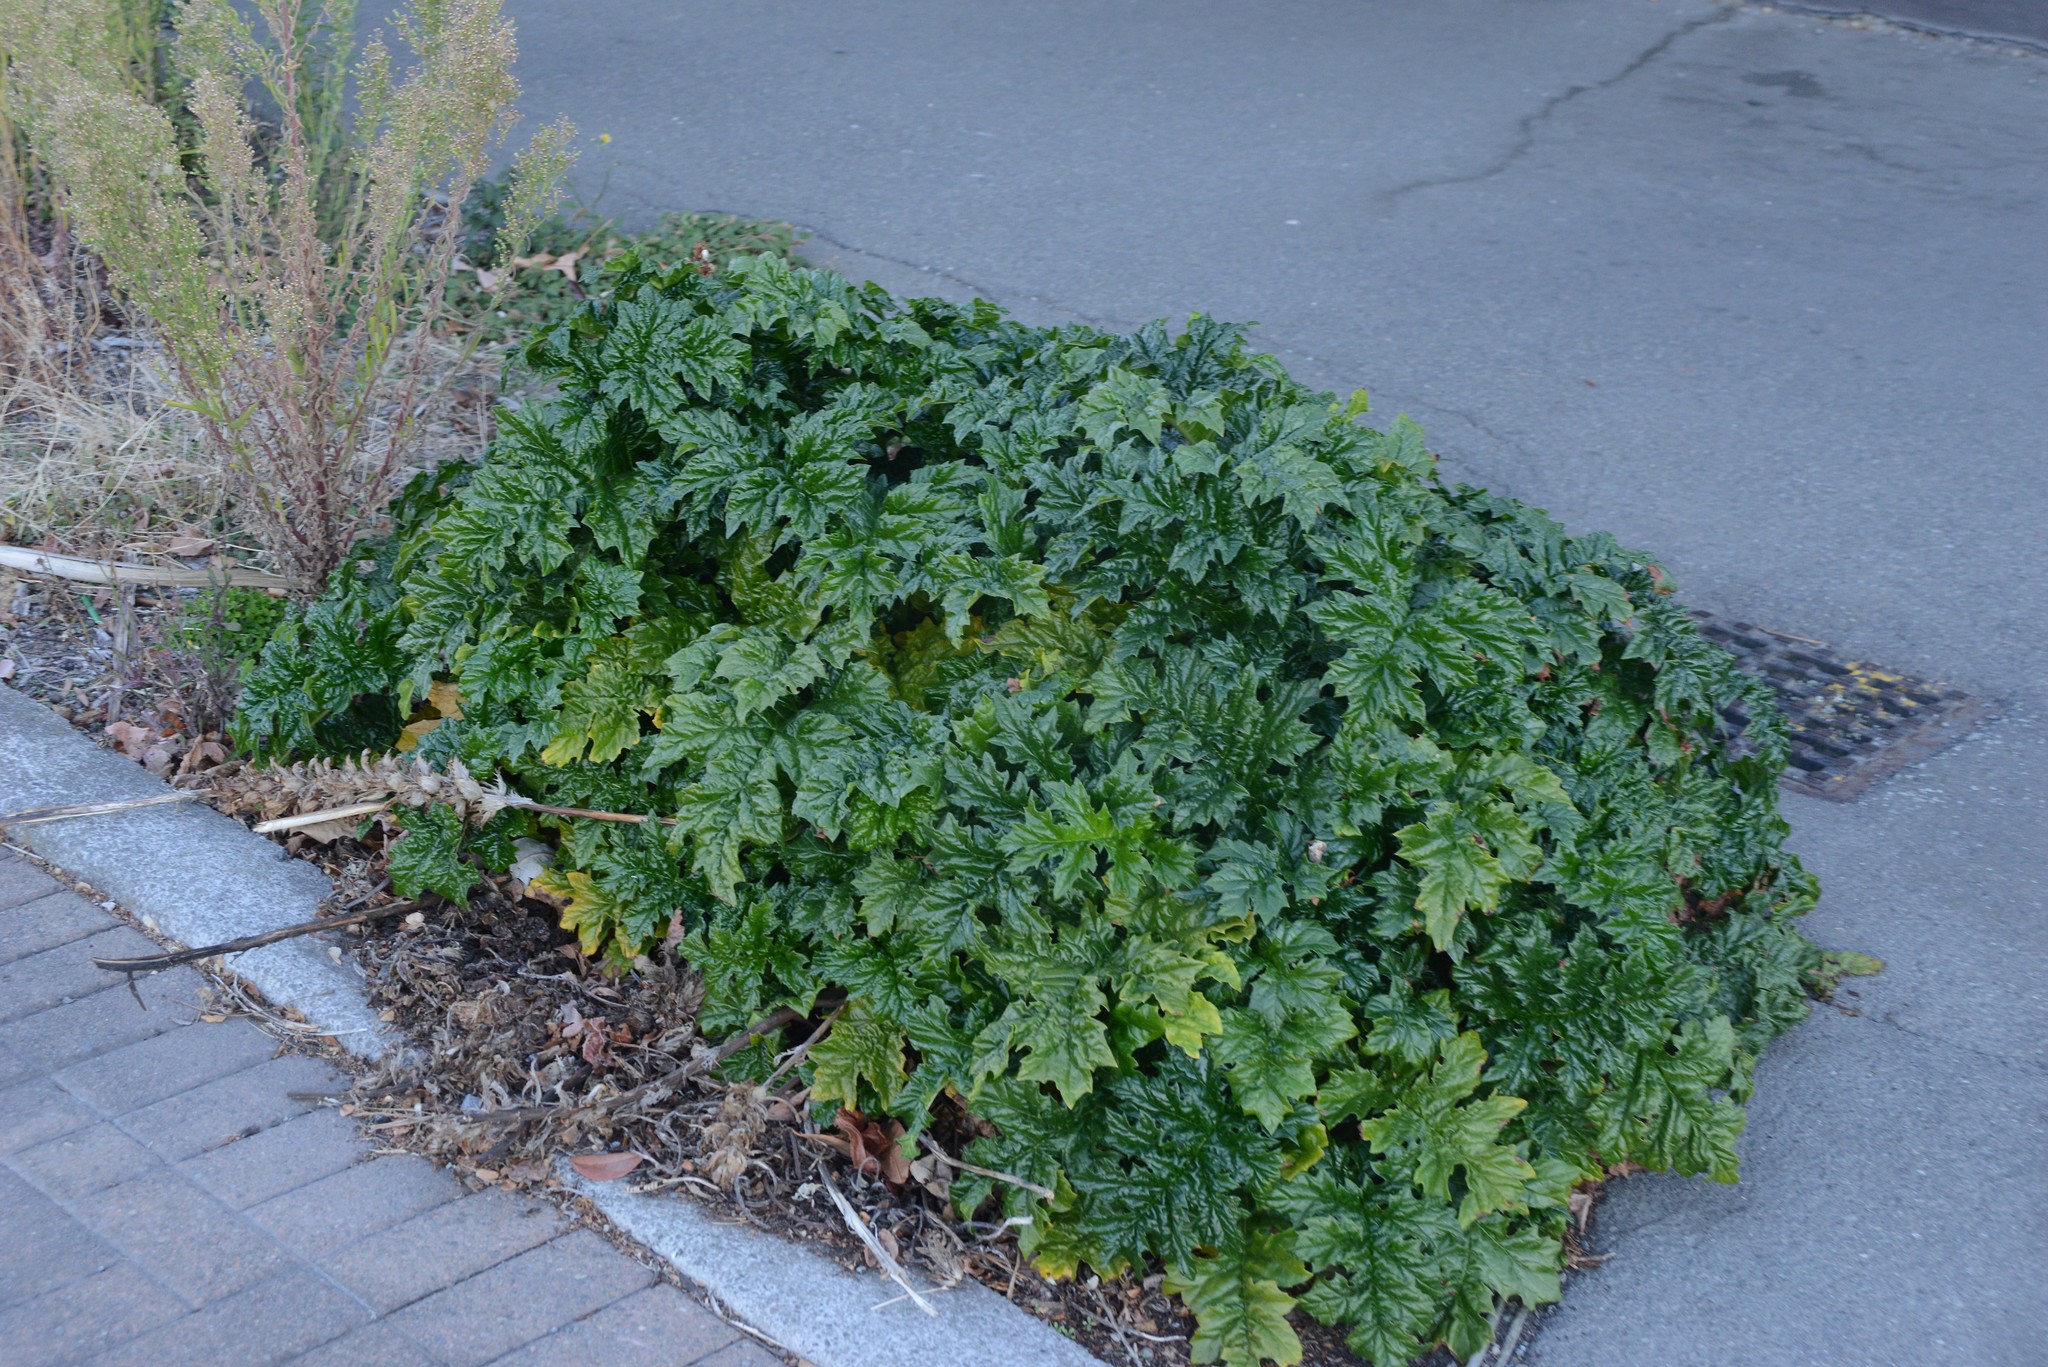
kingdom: Plantae
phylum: Tracheophyta
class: Magnoliopsida
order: Lamiales
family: Acanthaceae
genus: Acanthus
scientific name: Acanthus mollis
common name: Bear's-breech
